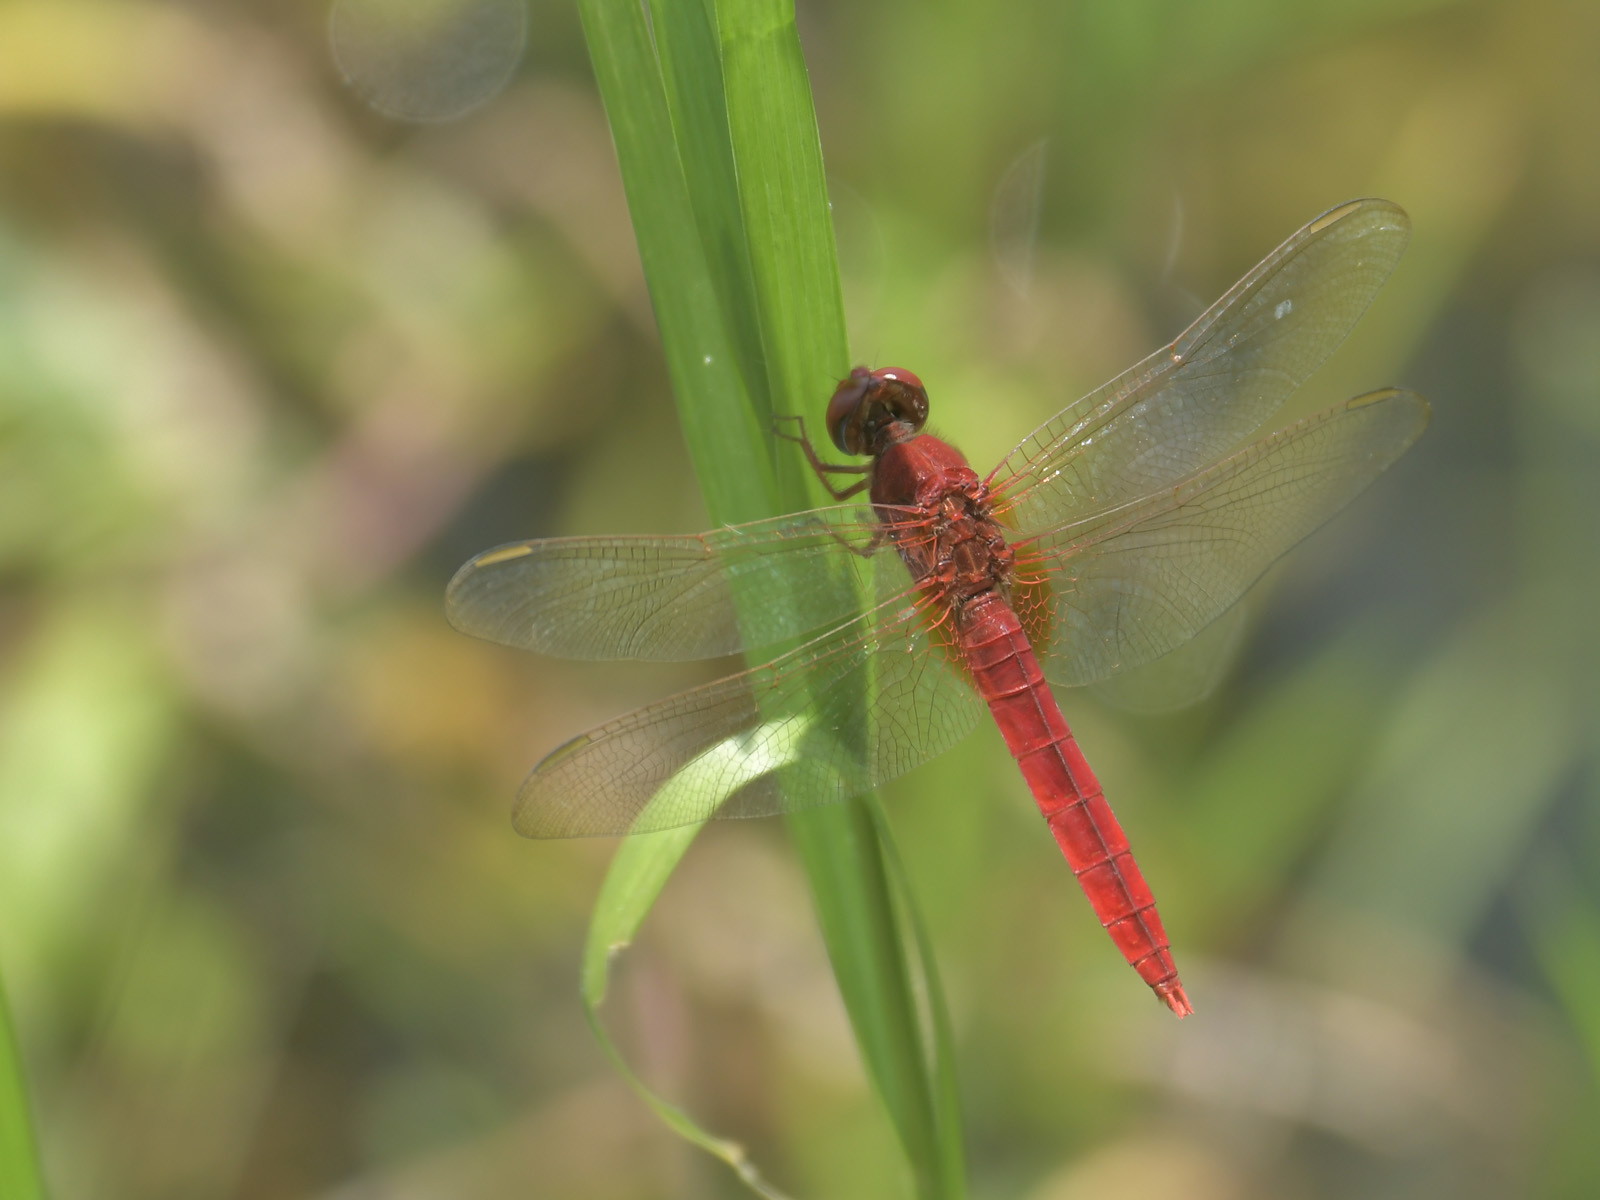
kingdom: Animalia
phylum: Arthropoda
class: Insecta
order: Odonata
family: Libellulidae
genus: Crocothemis
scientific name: Crocothemis servilia
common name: Scarlet skimmer
